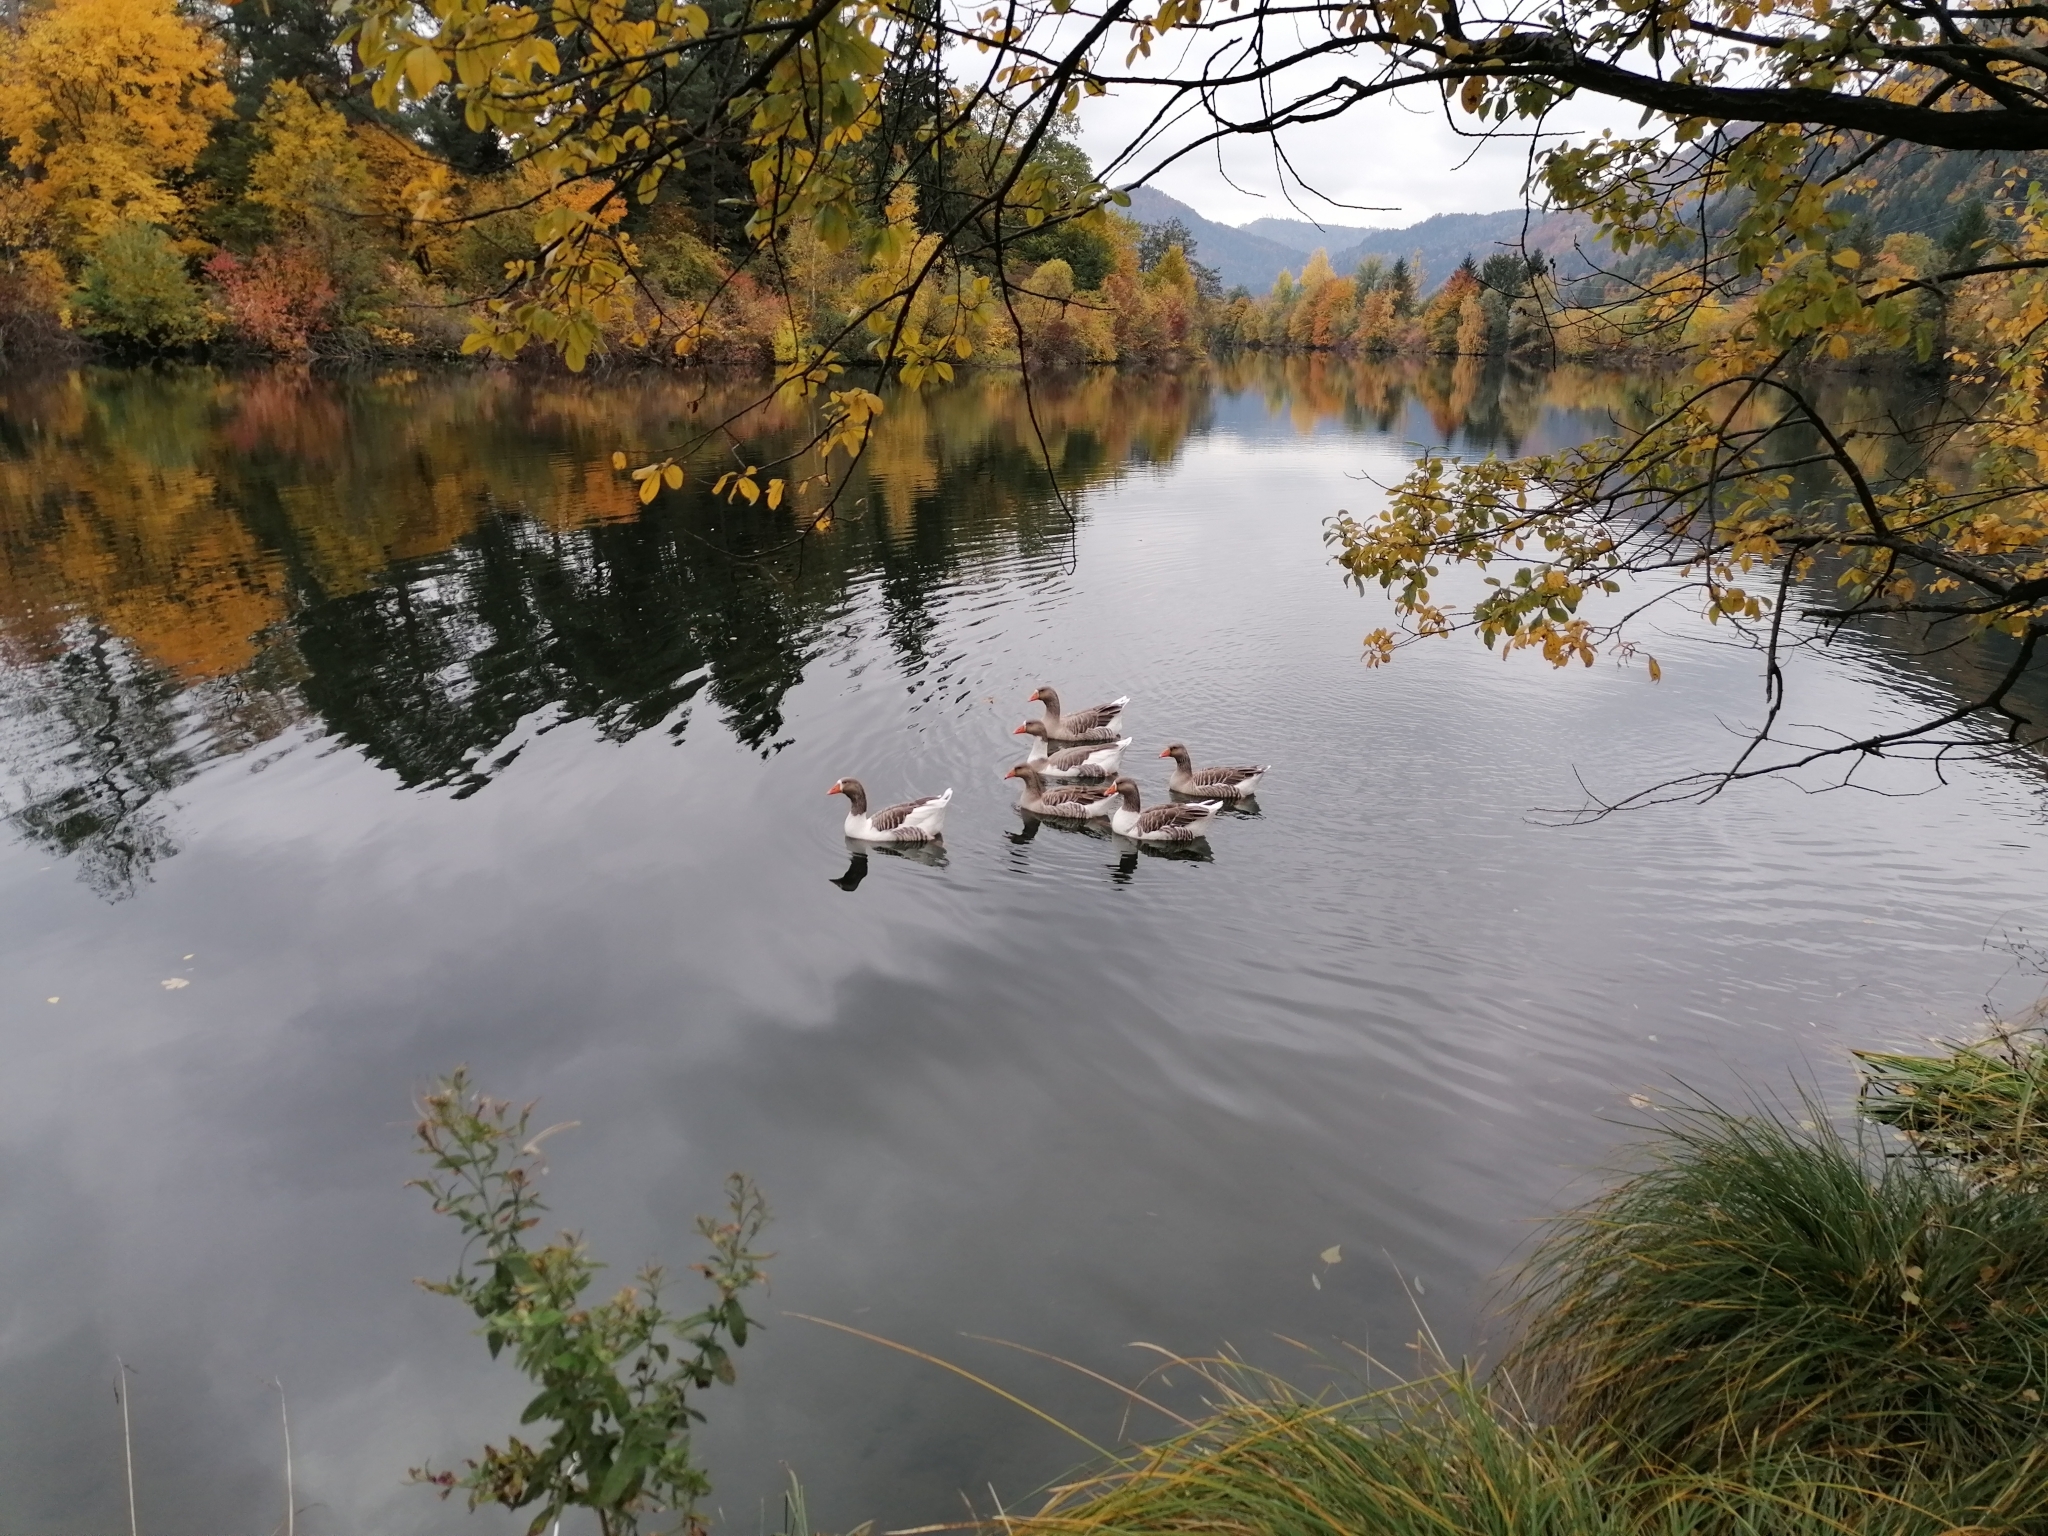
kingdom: Animalia
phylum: Chordata
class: Aves
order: Anseriformes
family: Anatidae
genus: Anser
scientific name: Anser anser
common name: Greylag goose
